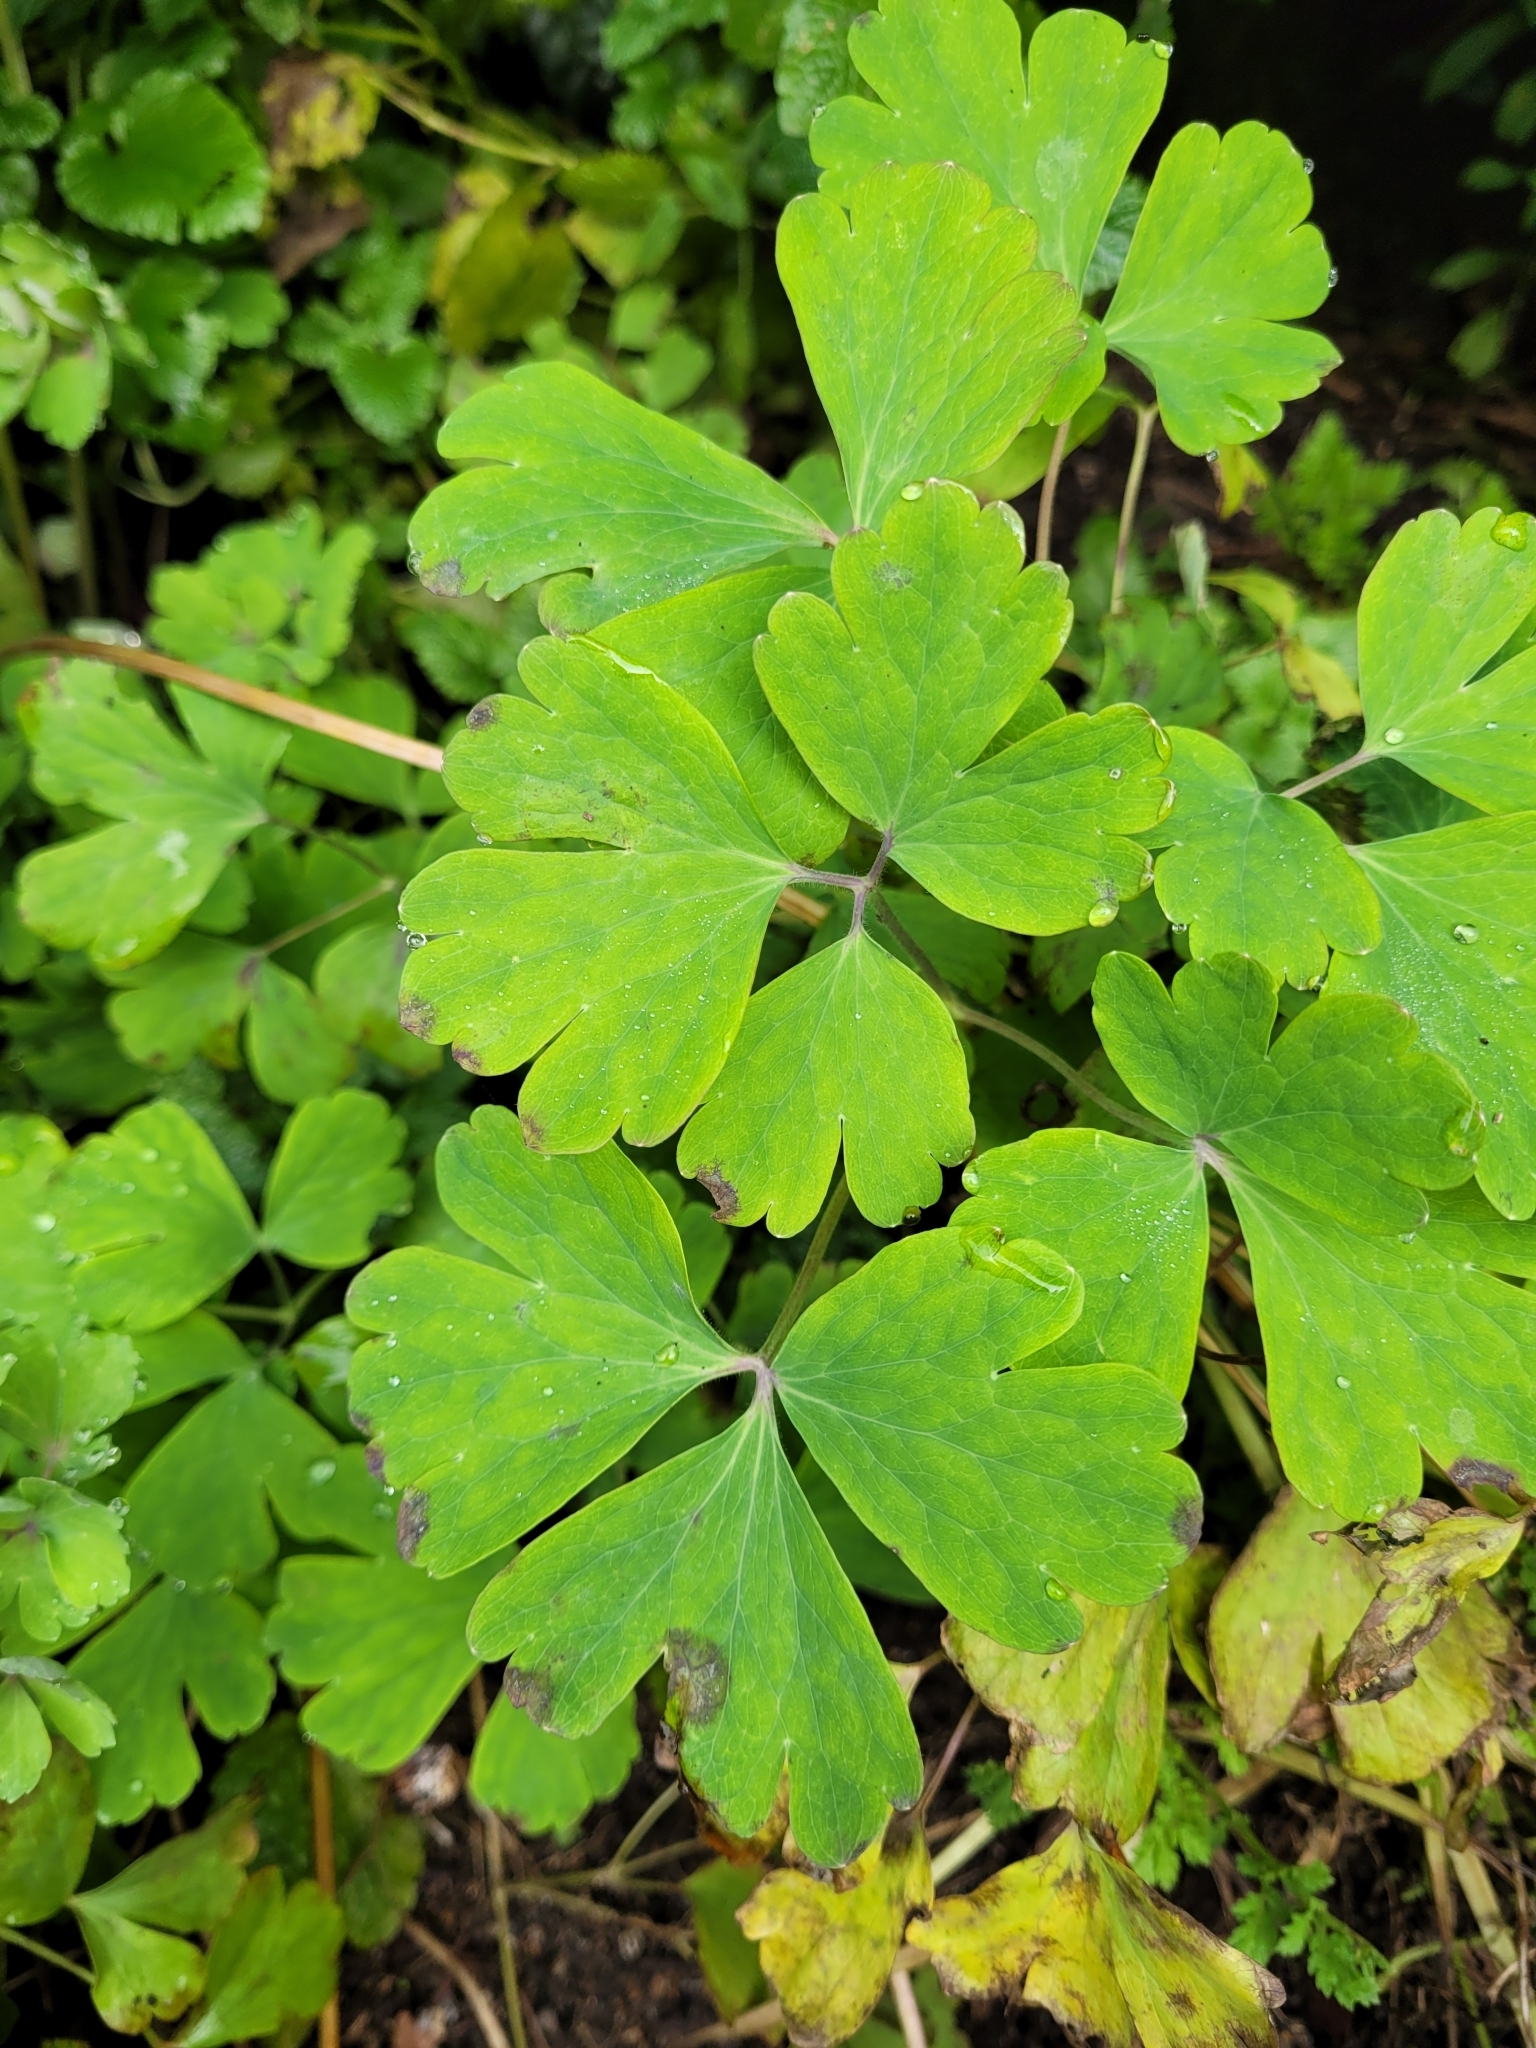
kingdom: Plantae
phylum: Tracheophyta
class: Magnoliopsida
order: Ranunculales
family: Ranunculaceae
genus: Aquilegia
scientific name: Aquilegia vulgaris
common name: Columbine
